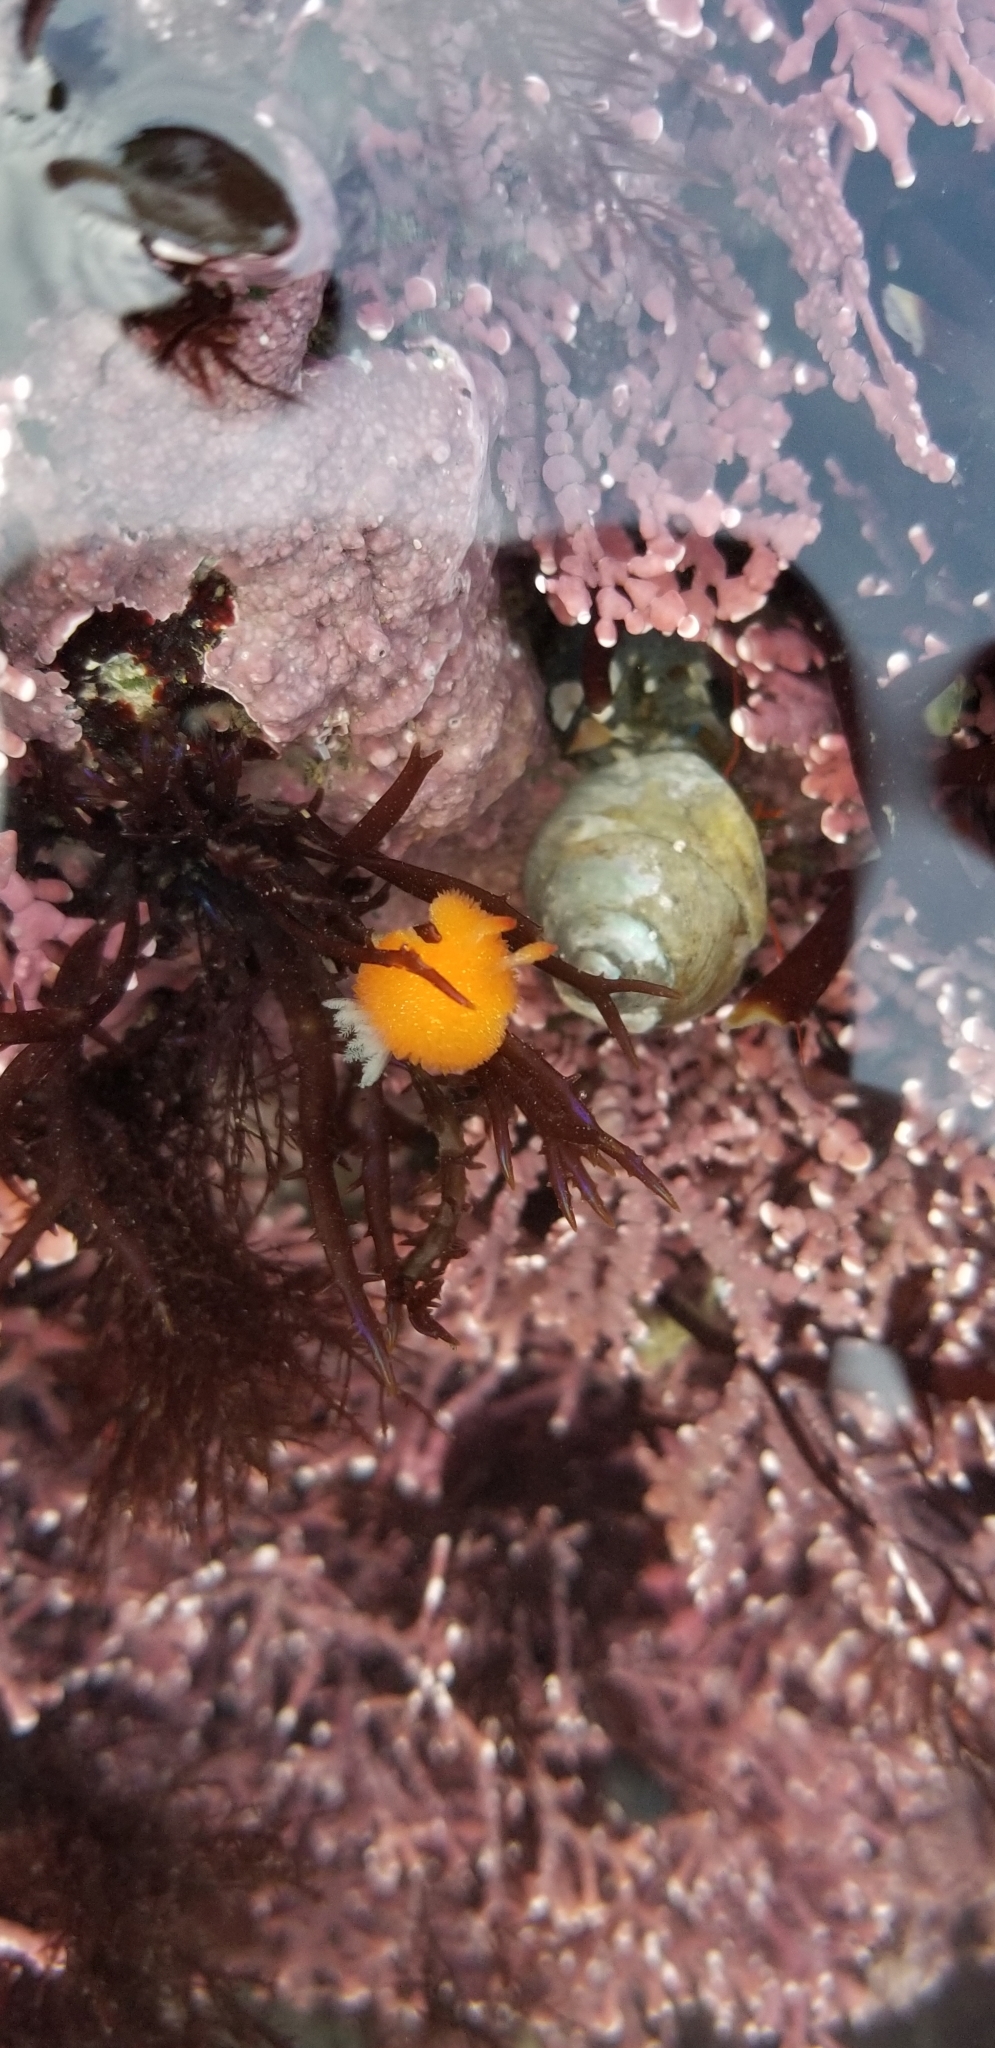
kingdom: Animalia
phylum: Mollusca
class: Gastropoda
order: Nudibranchia
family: Onchidorididae
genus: Acanthodoris
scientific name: Acanthodoris lutea
